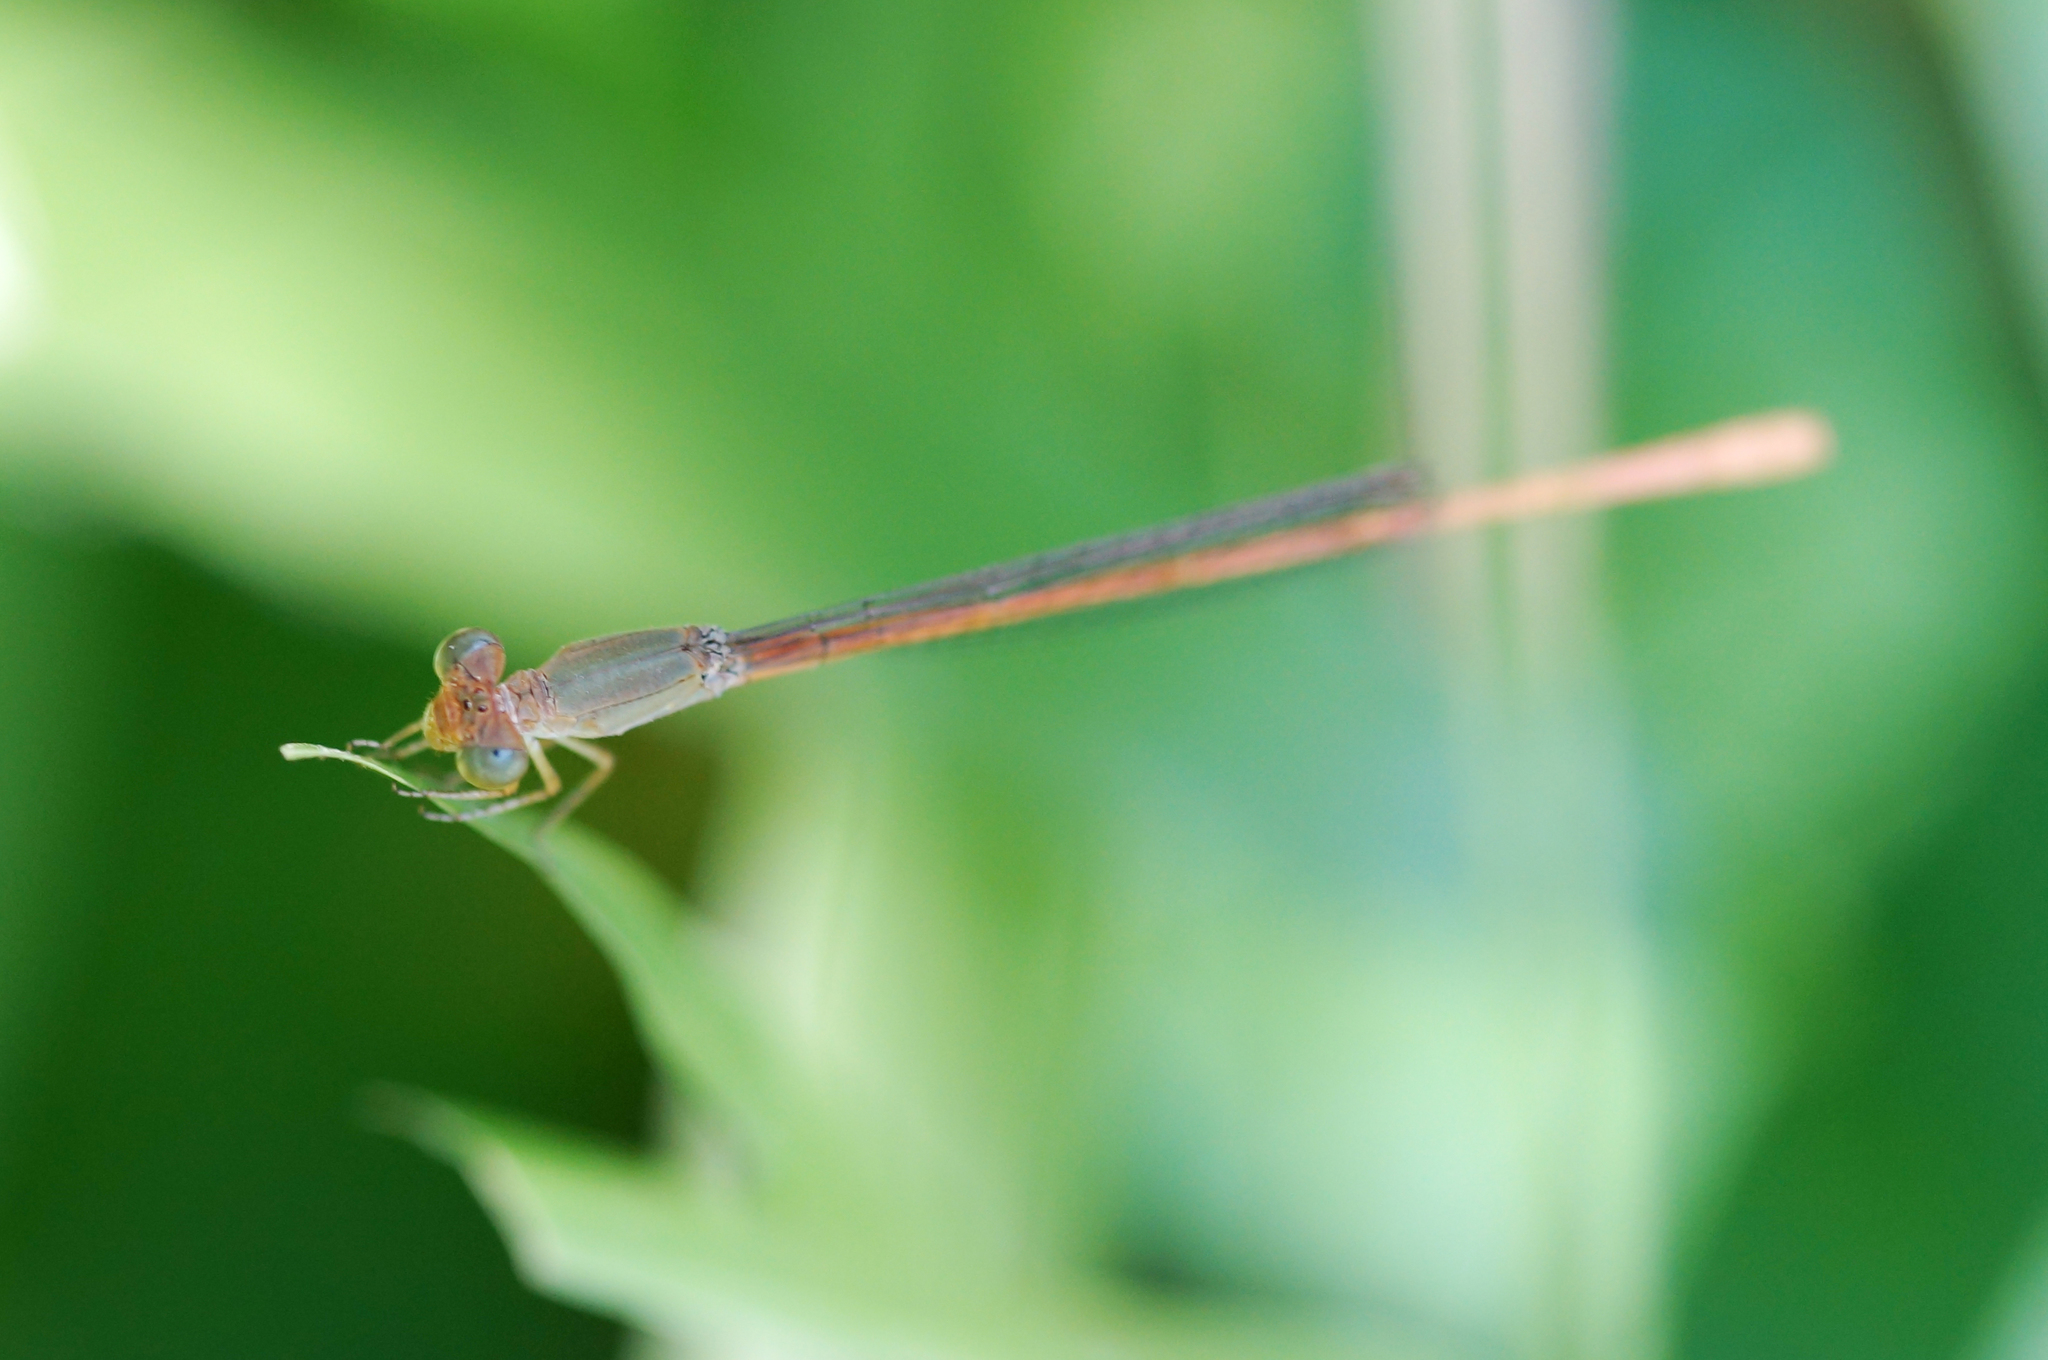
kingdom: Animalia
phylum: Arthropoda
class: Insecta
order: Odonata
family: Coenagrionidae
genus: Ceriagrion
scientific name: Ceriagrion olivaceum
